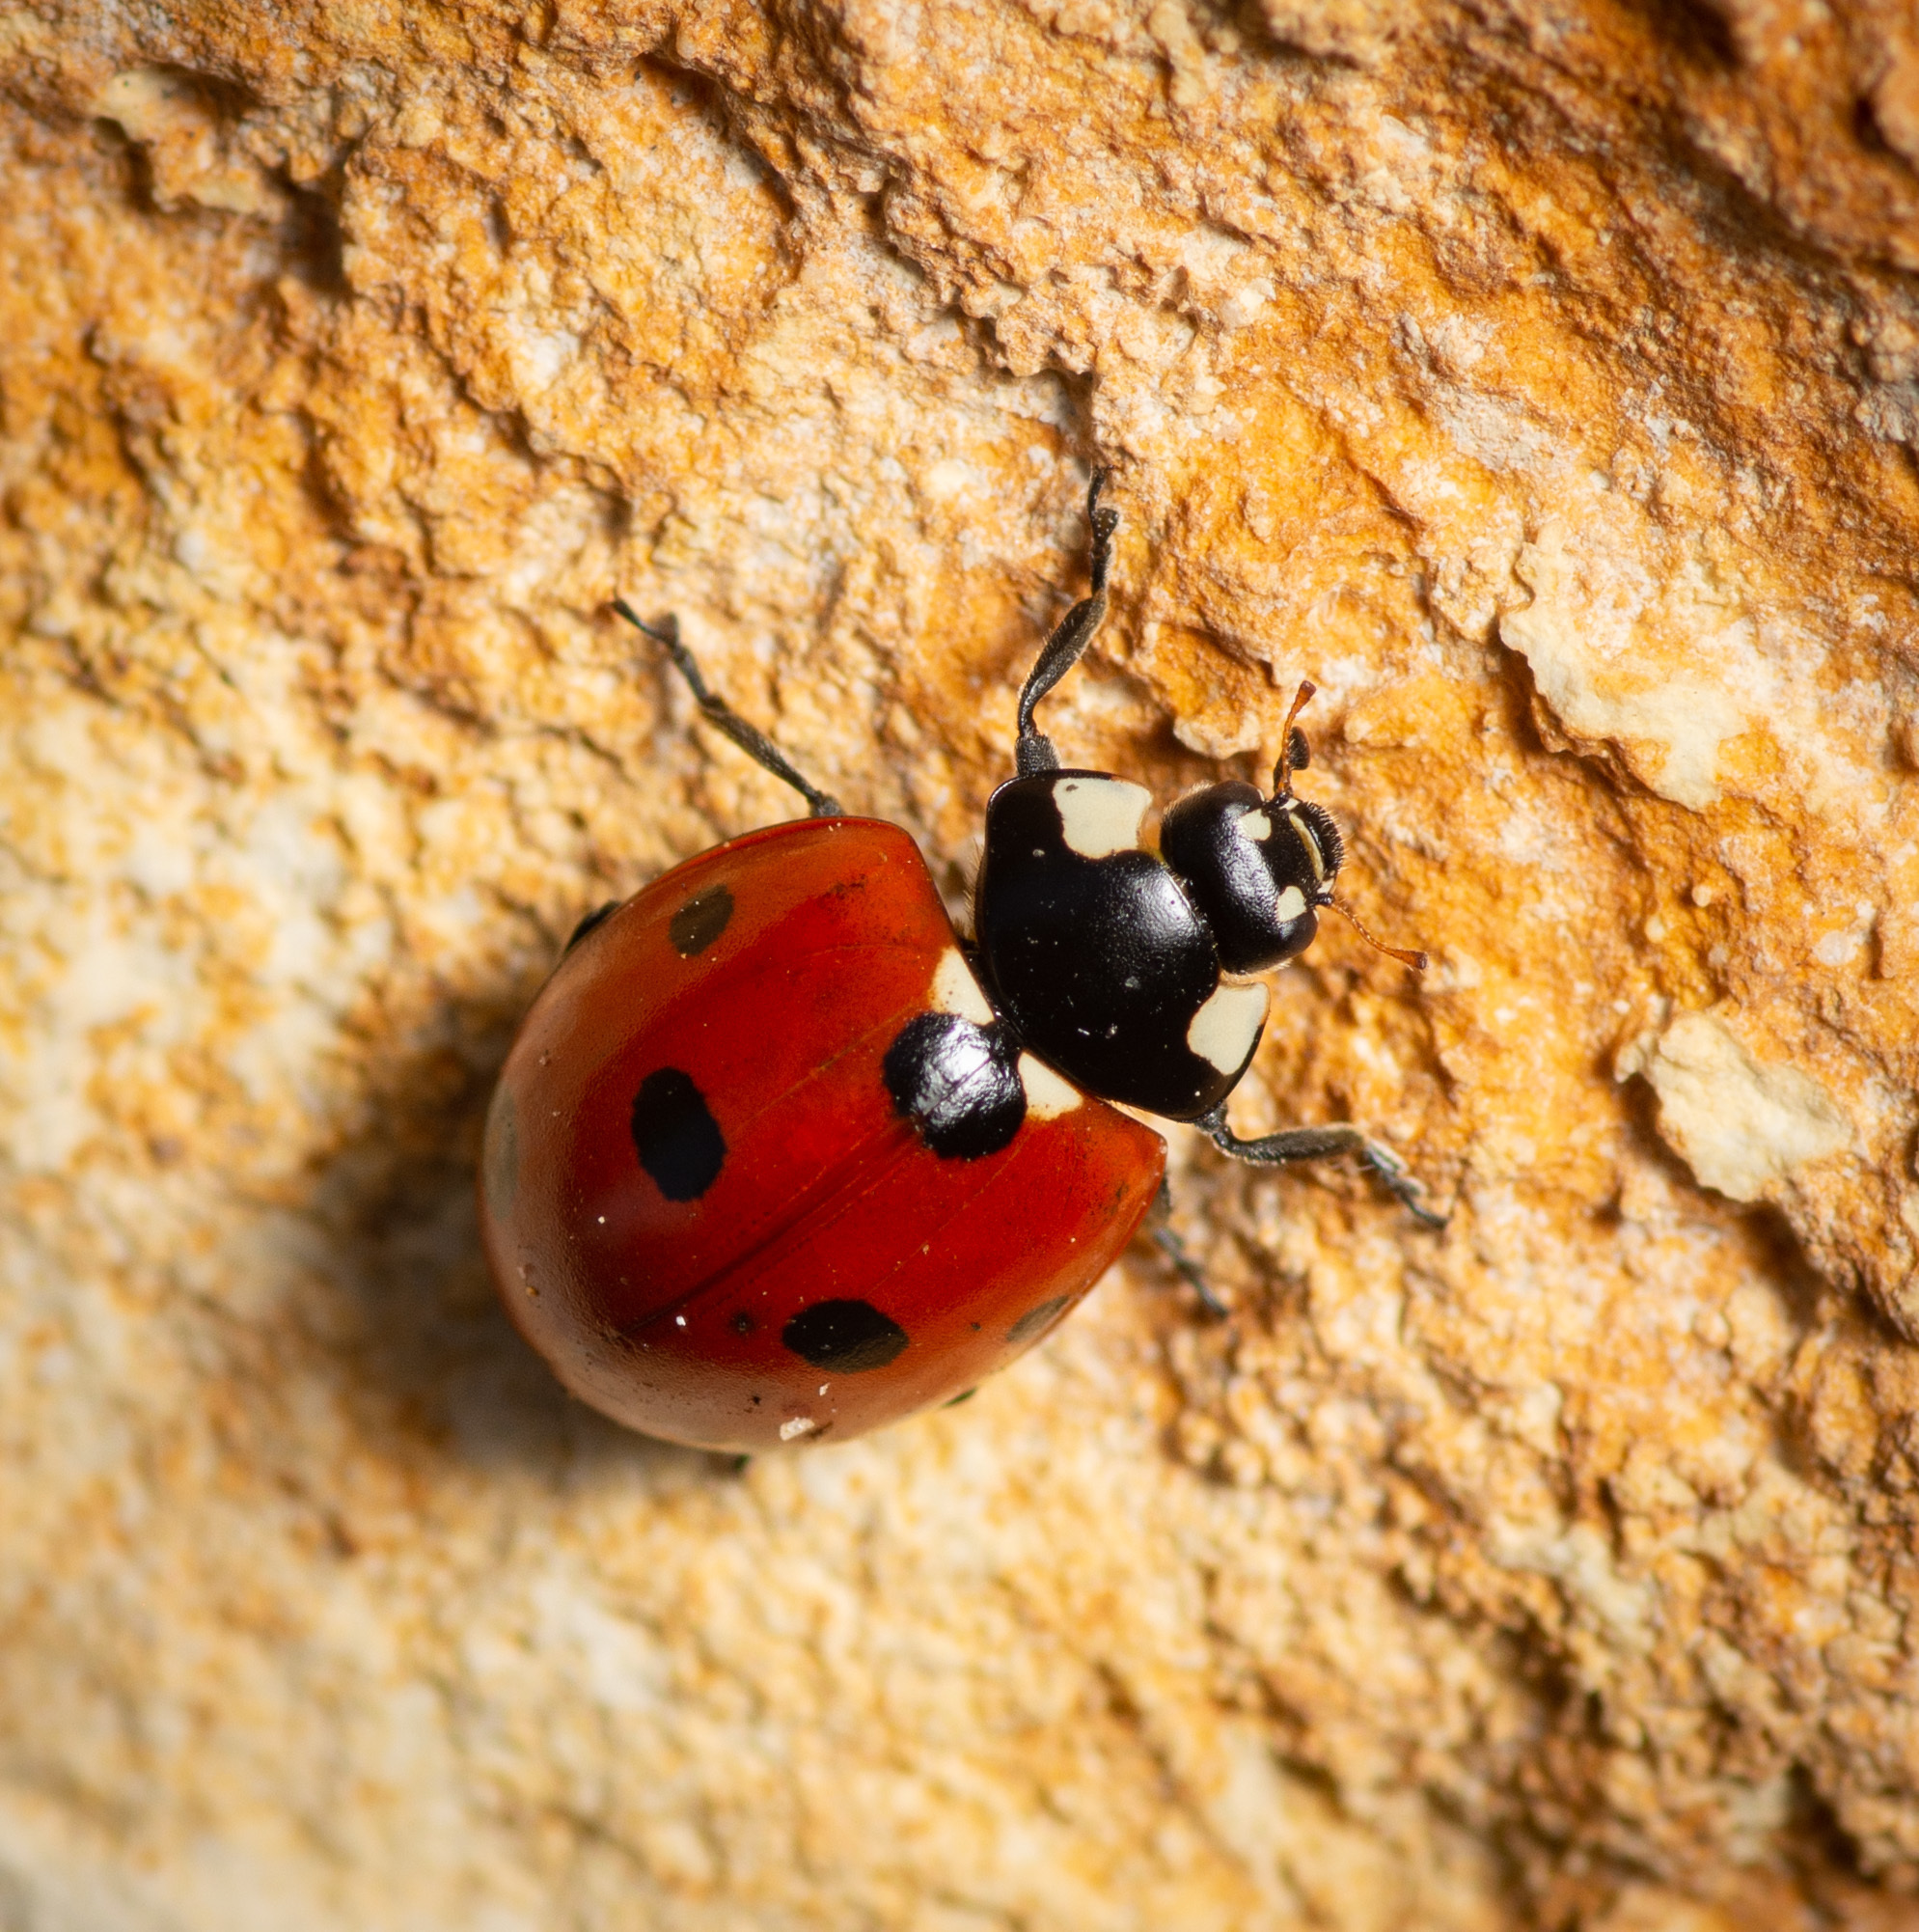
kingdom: Animalia
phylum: Arthropoda
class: Insecta
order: Coleoptera
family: Coccinellidae
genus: Coccinella
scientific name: Coccinella septempunctata
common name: Sevenspotted lady beetle
